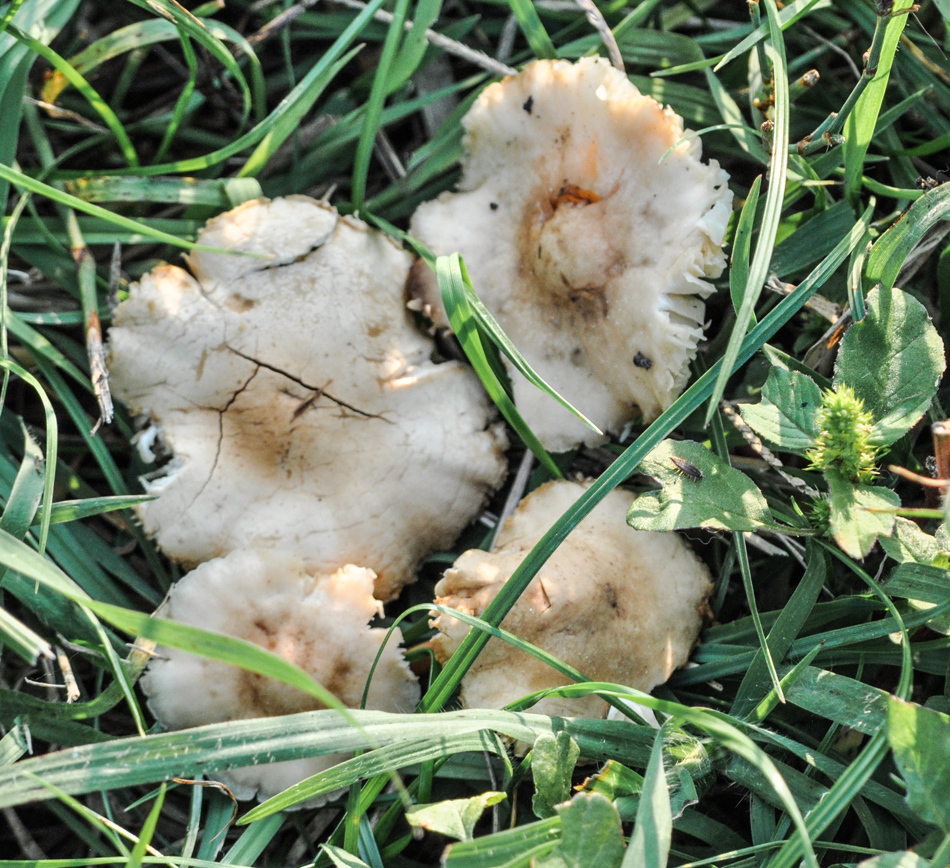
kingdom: Fungi
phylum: Basidiomycota
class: Agaricomycetes
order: Agaricales
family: Marasmiaceae
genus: Marasmius
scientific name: Marasmius oreades
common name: Fairy ring champignon
